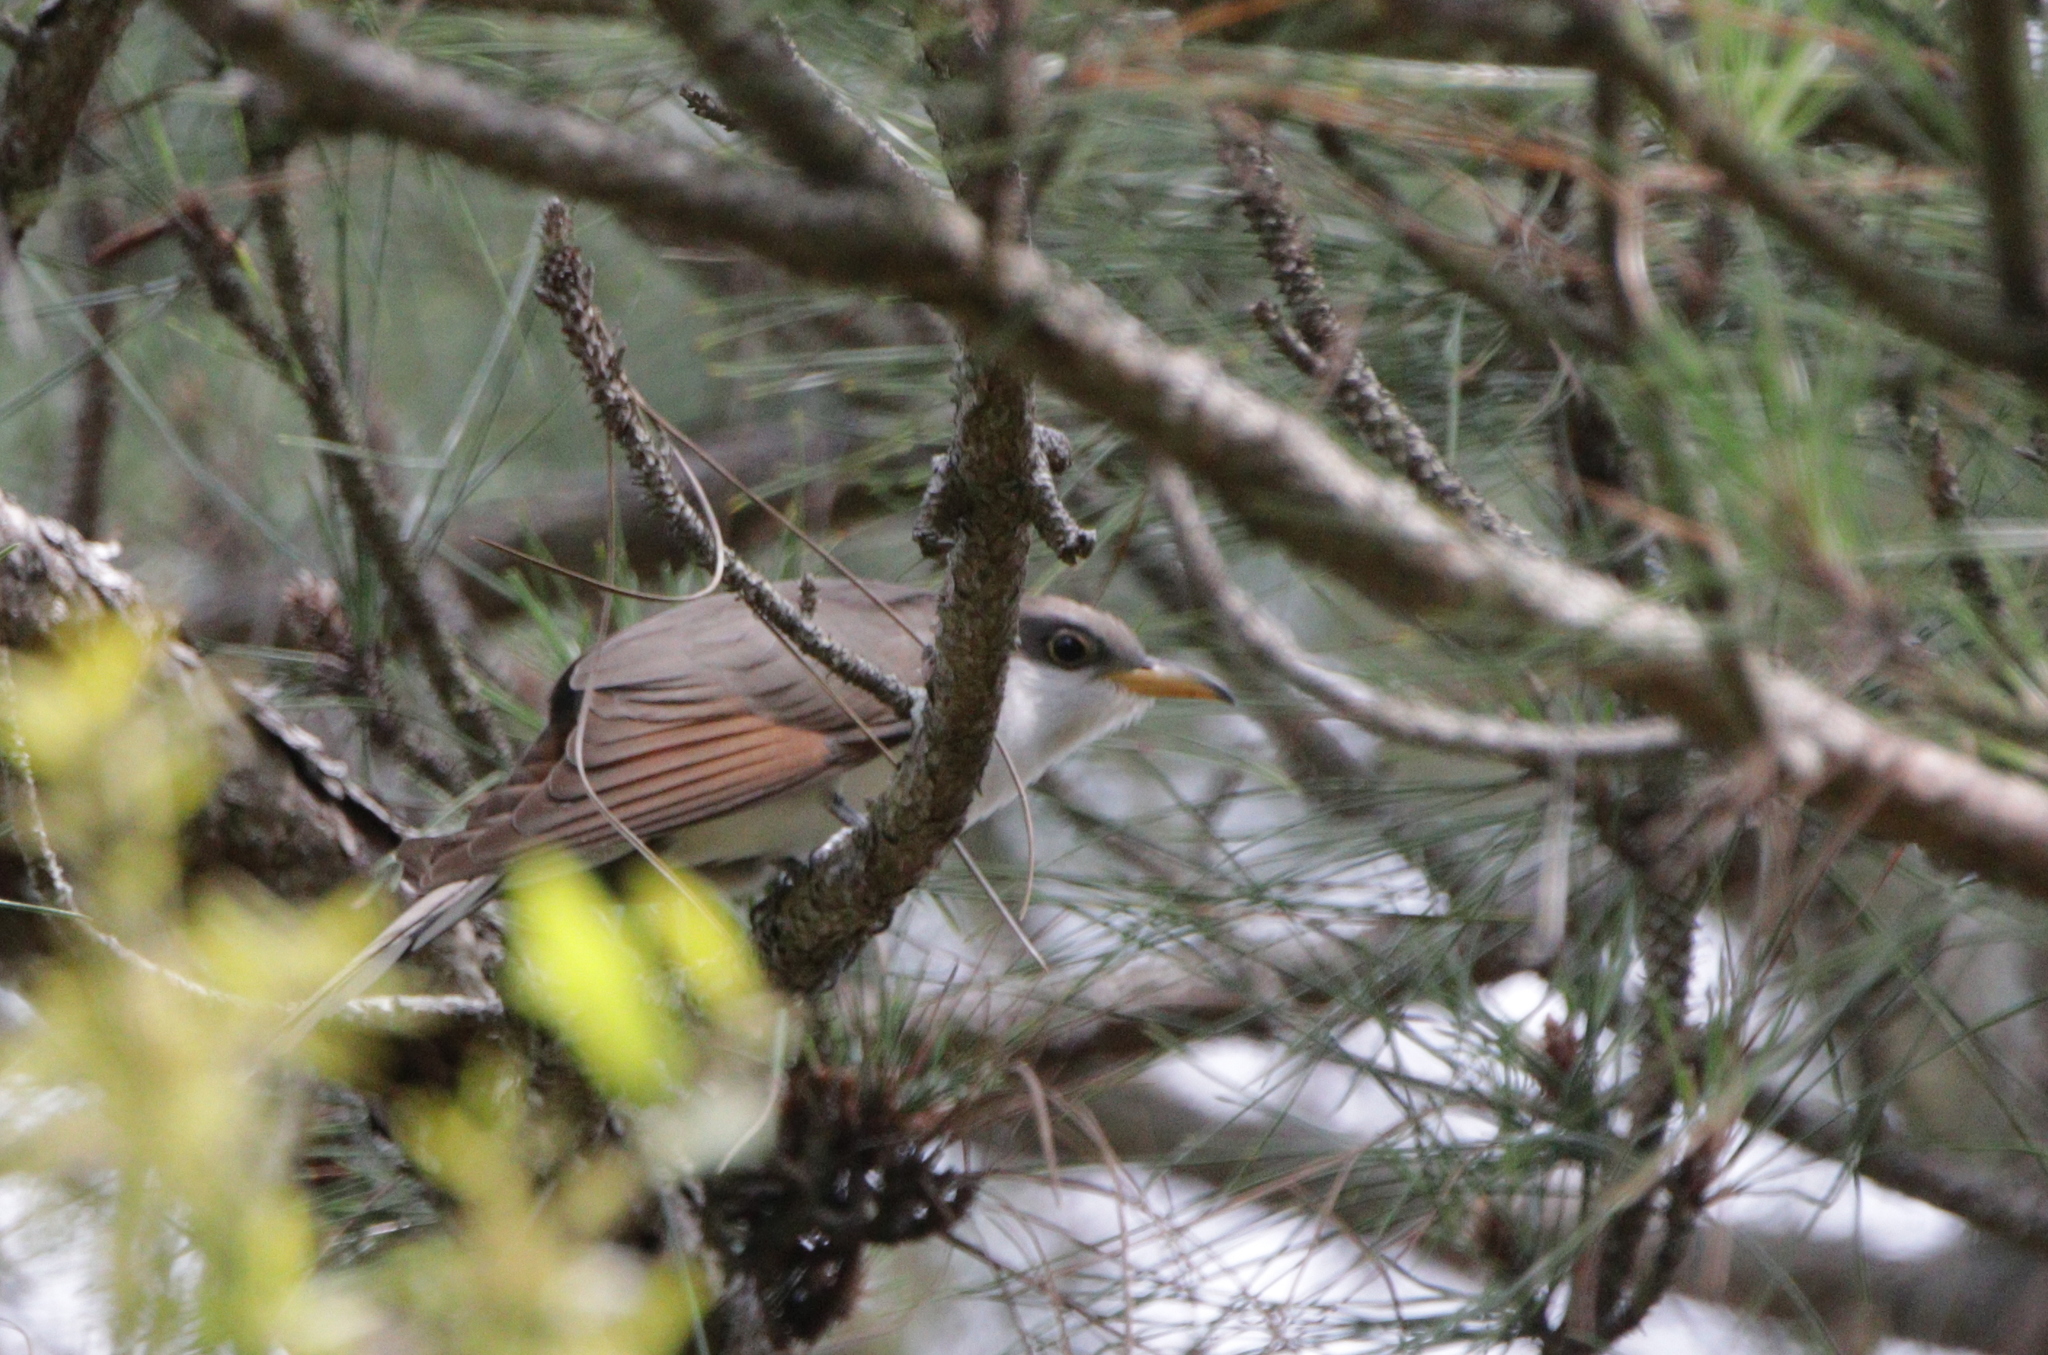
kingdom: Animalia
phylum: Chordata
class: Aves
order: Cuculiformes
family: Cuculidae
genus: Coccyzus
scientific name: Coccyzus americanus
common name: Yellow-billed cuckoo
